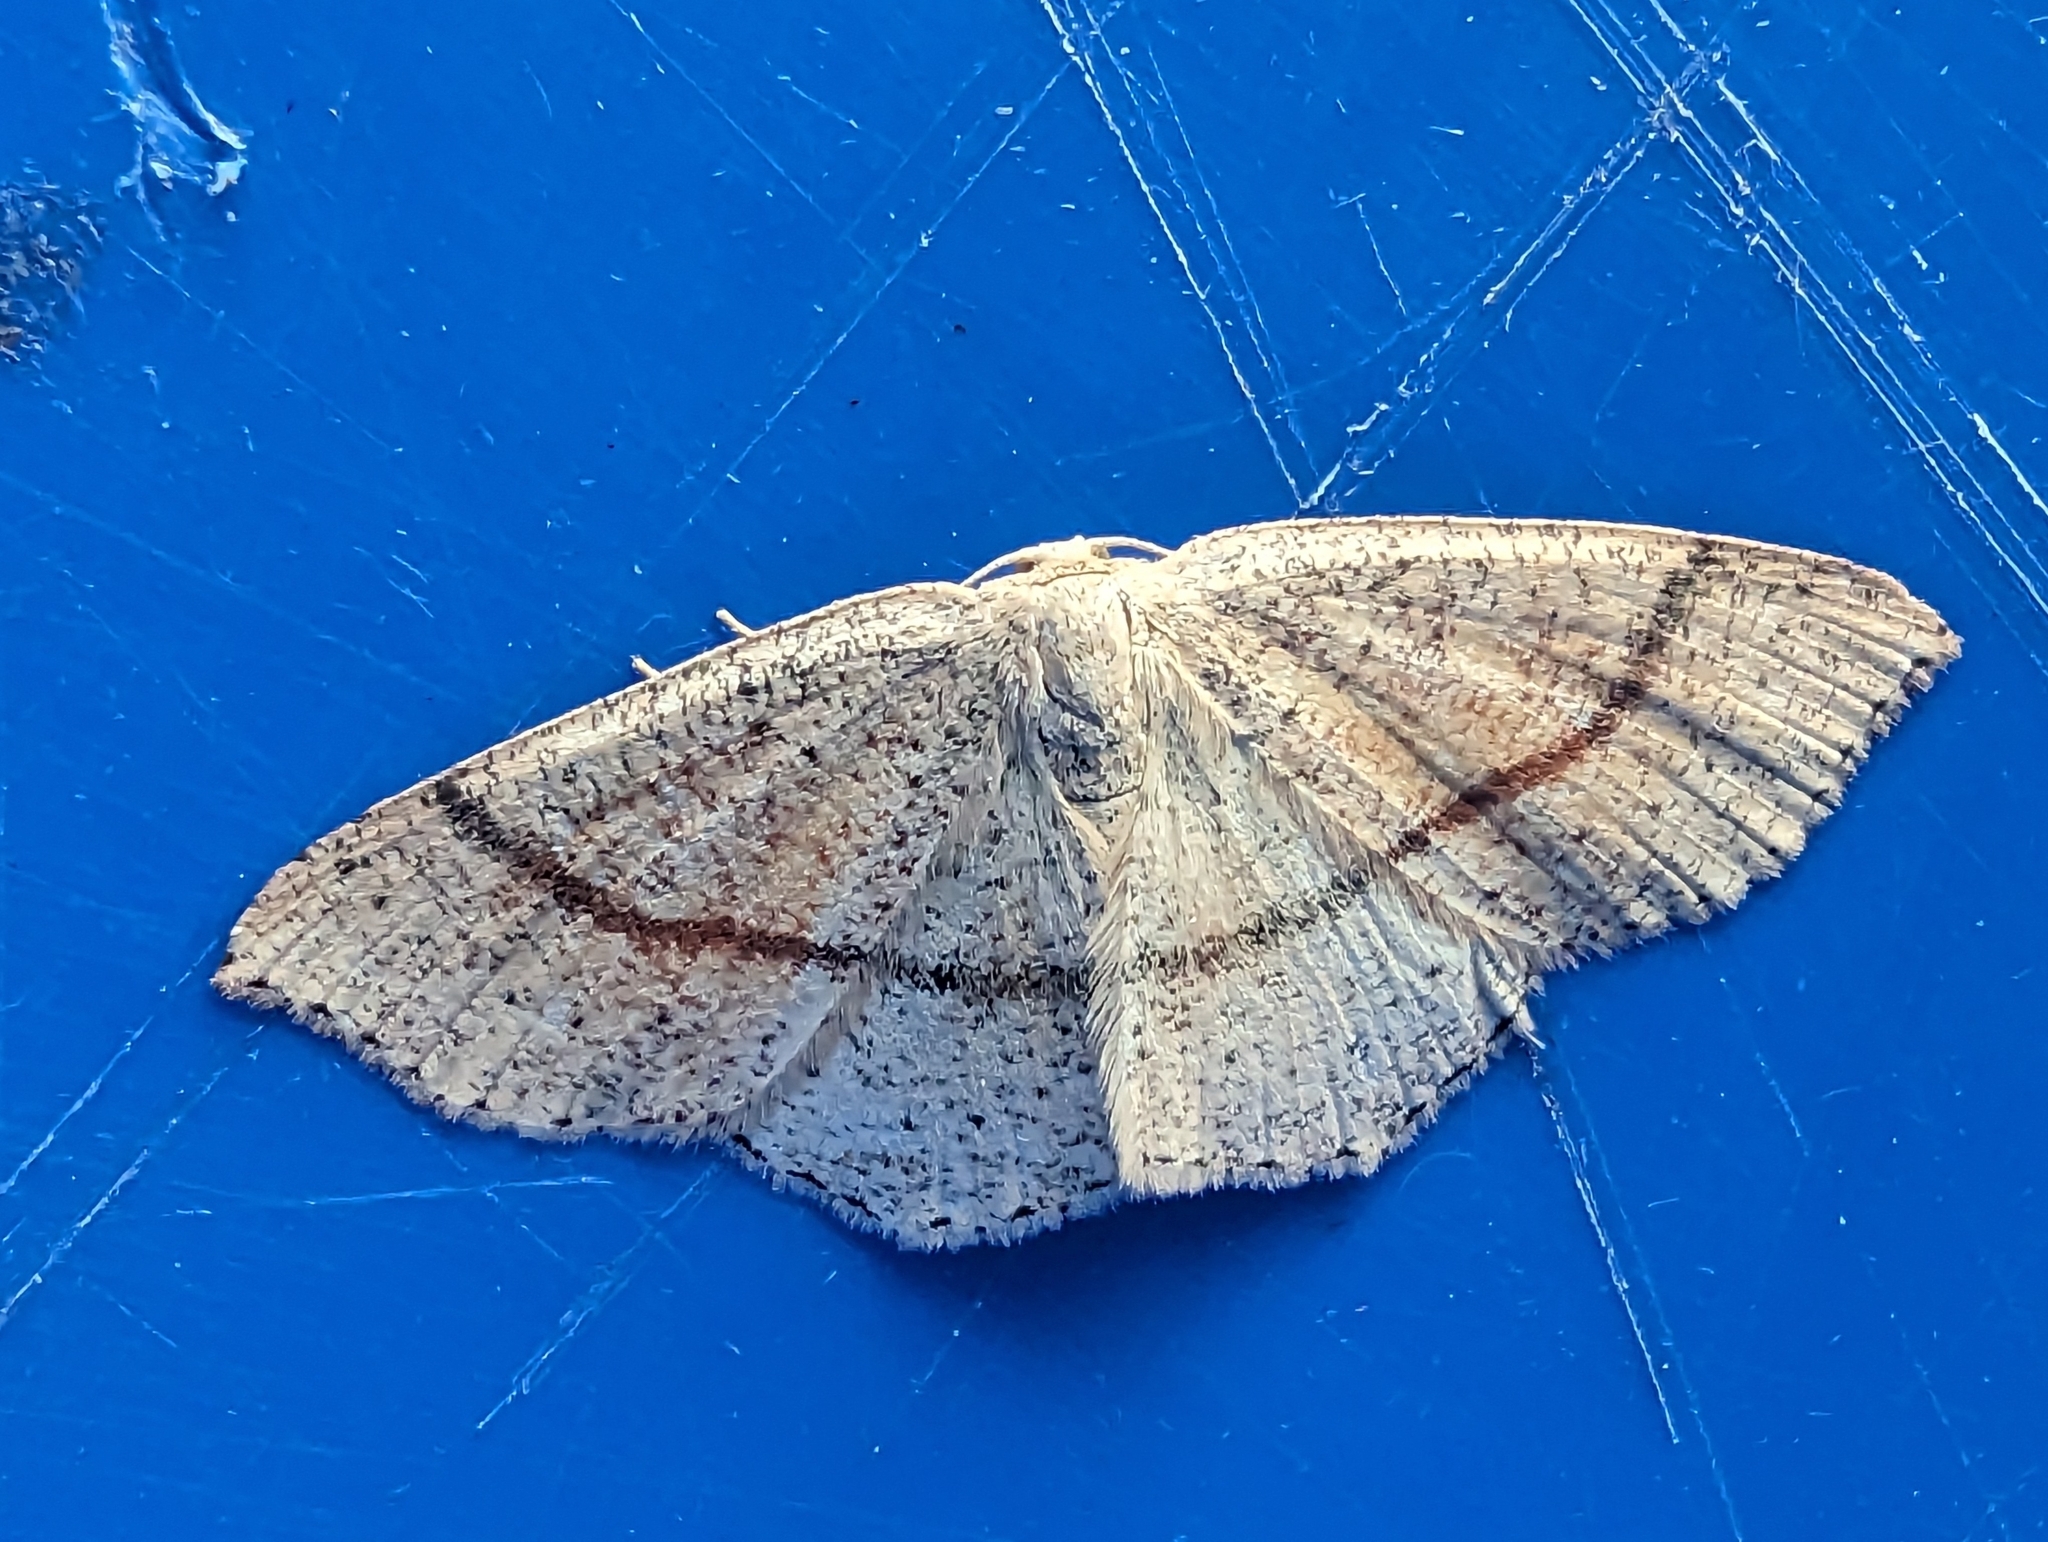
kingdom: Animalia
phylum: Arthropoda
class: Insecta
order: Lepidoptera
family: Geometridae
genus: Cyclophora
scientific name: Cyclophora punctaria
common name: Maiden's blush
